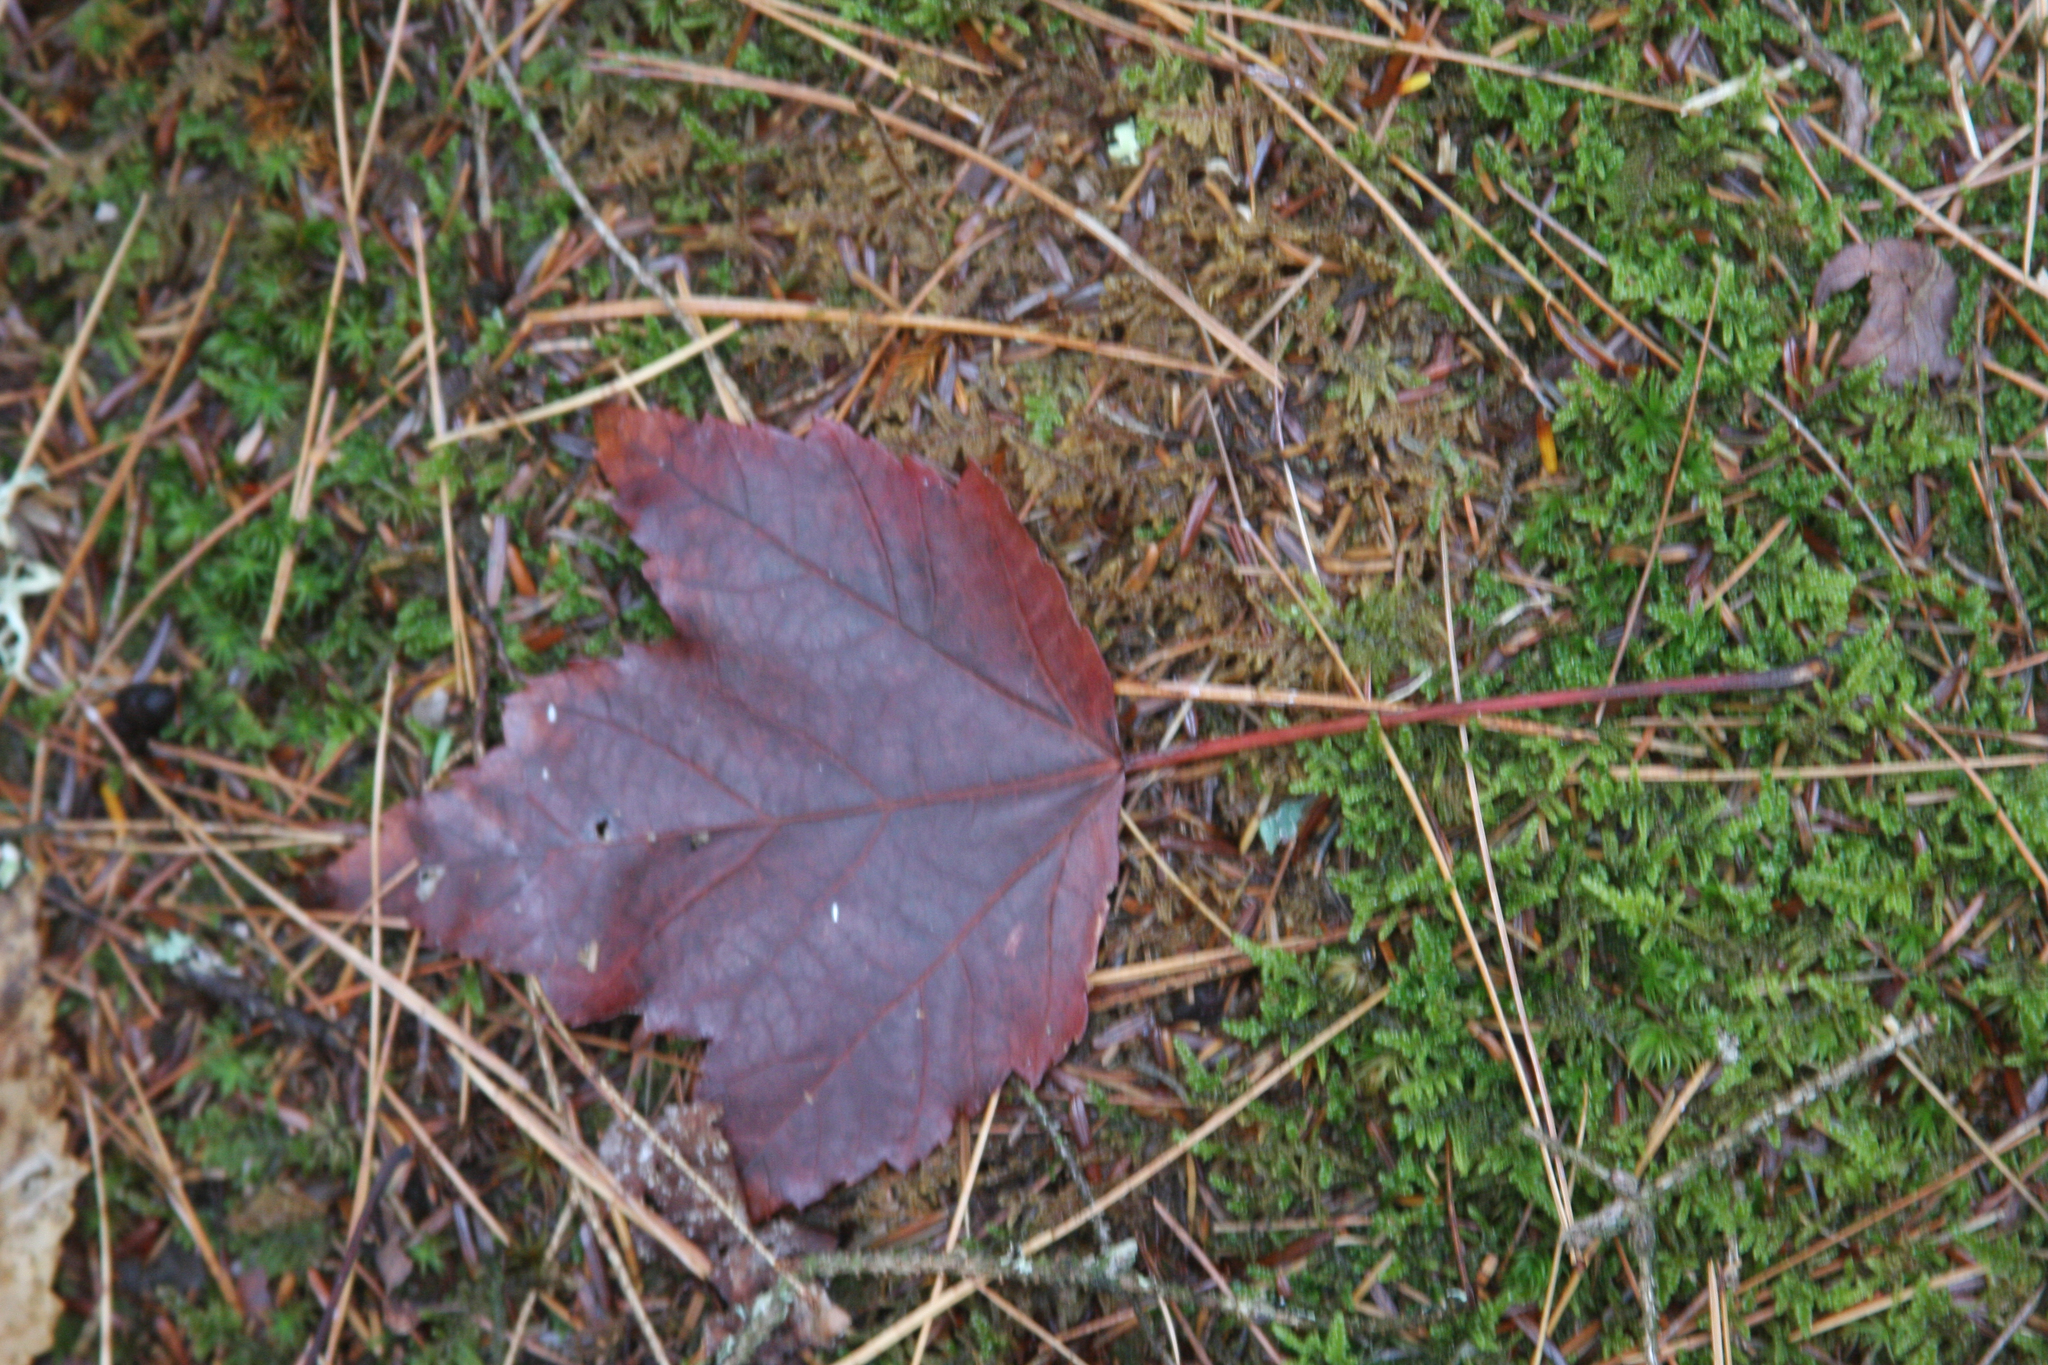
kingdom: Plantae
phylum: Tracheophyta
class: Magnoliopsida
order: Sapindales
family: Sapindaceae
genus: Acer
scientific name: Acer rubrum
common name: Red maple
